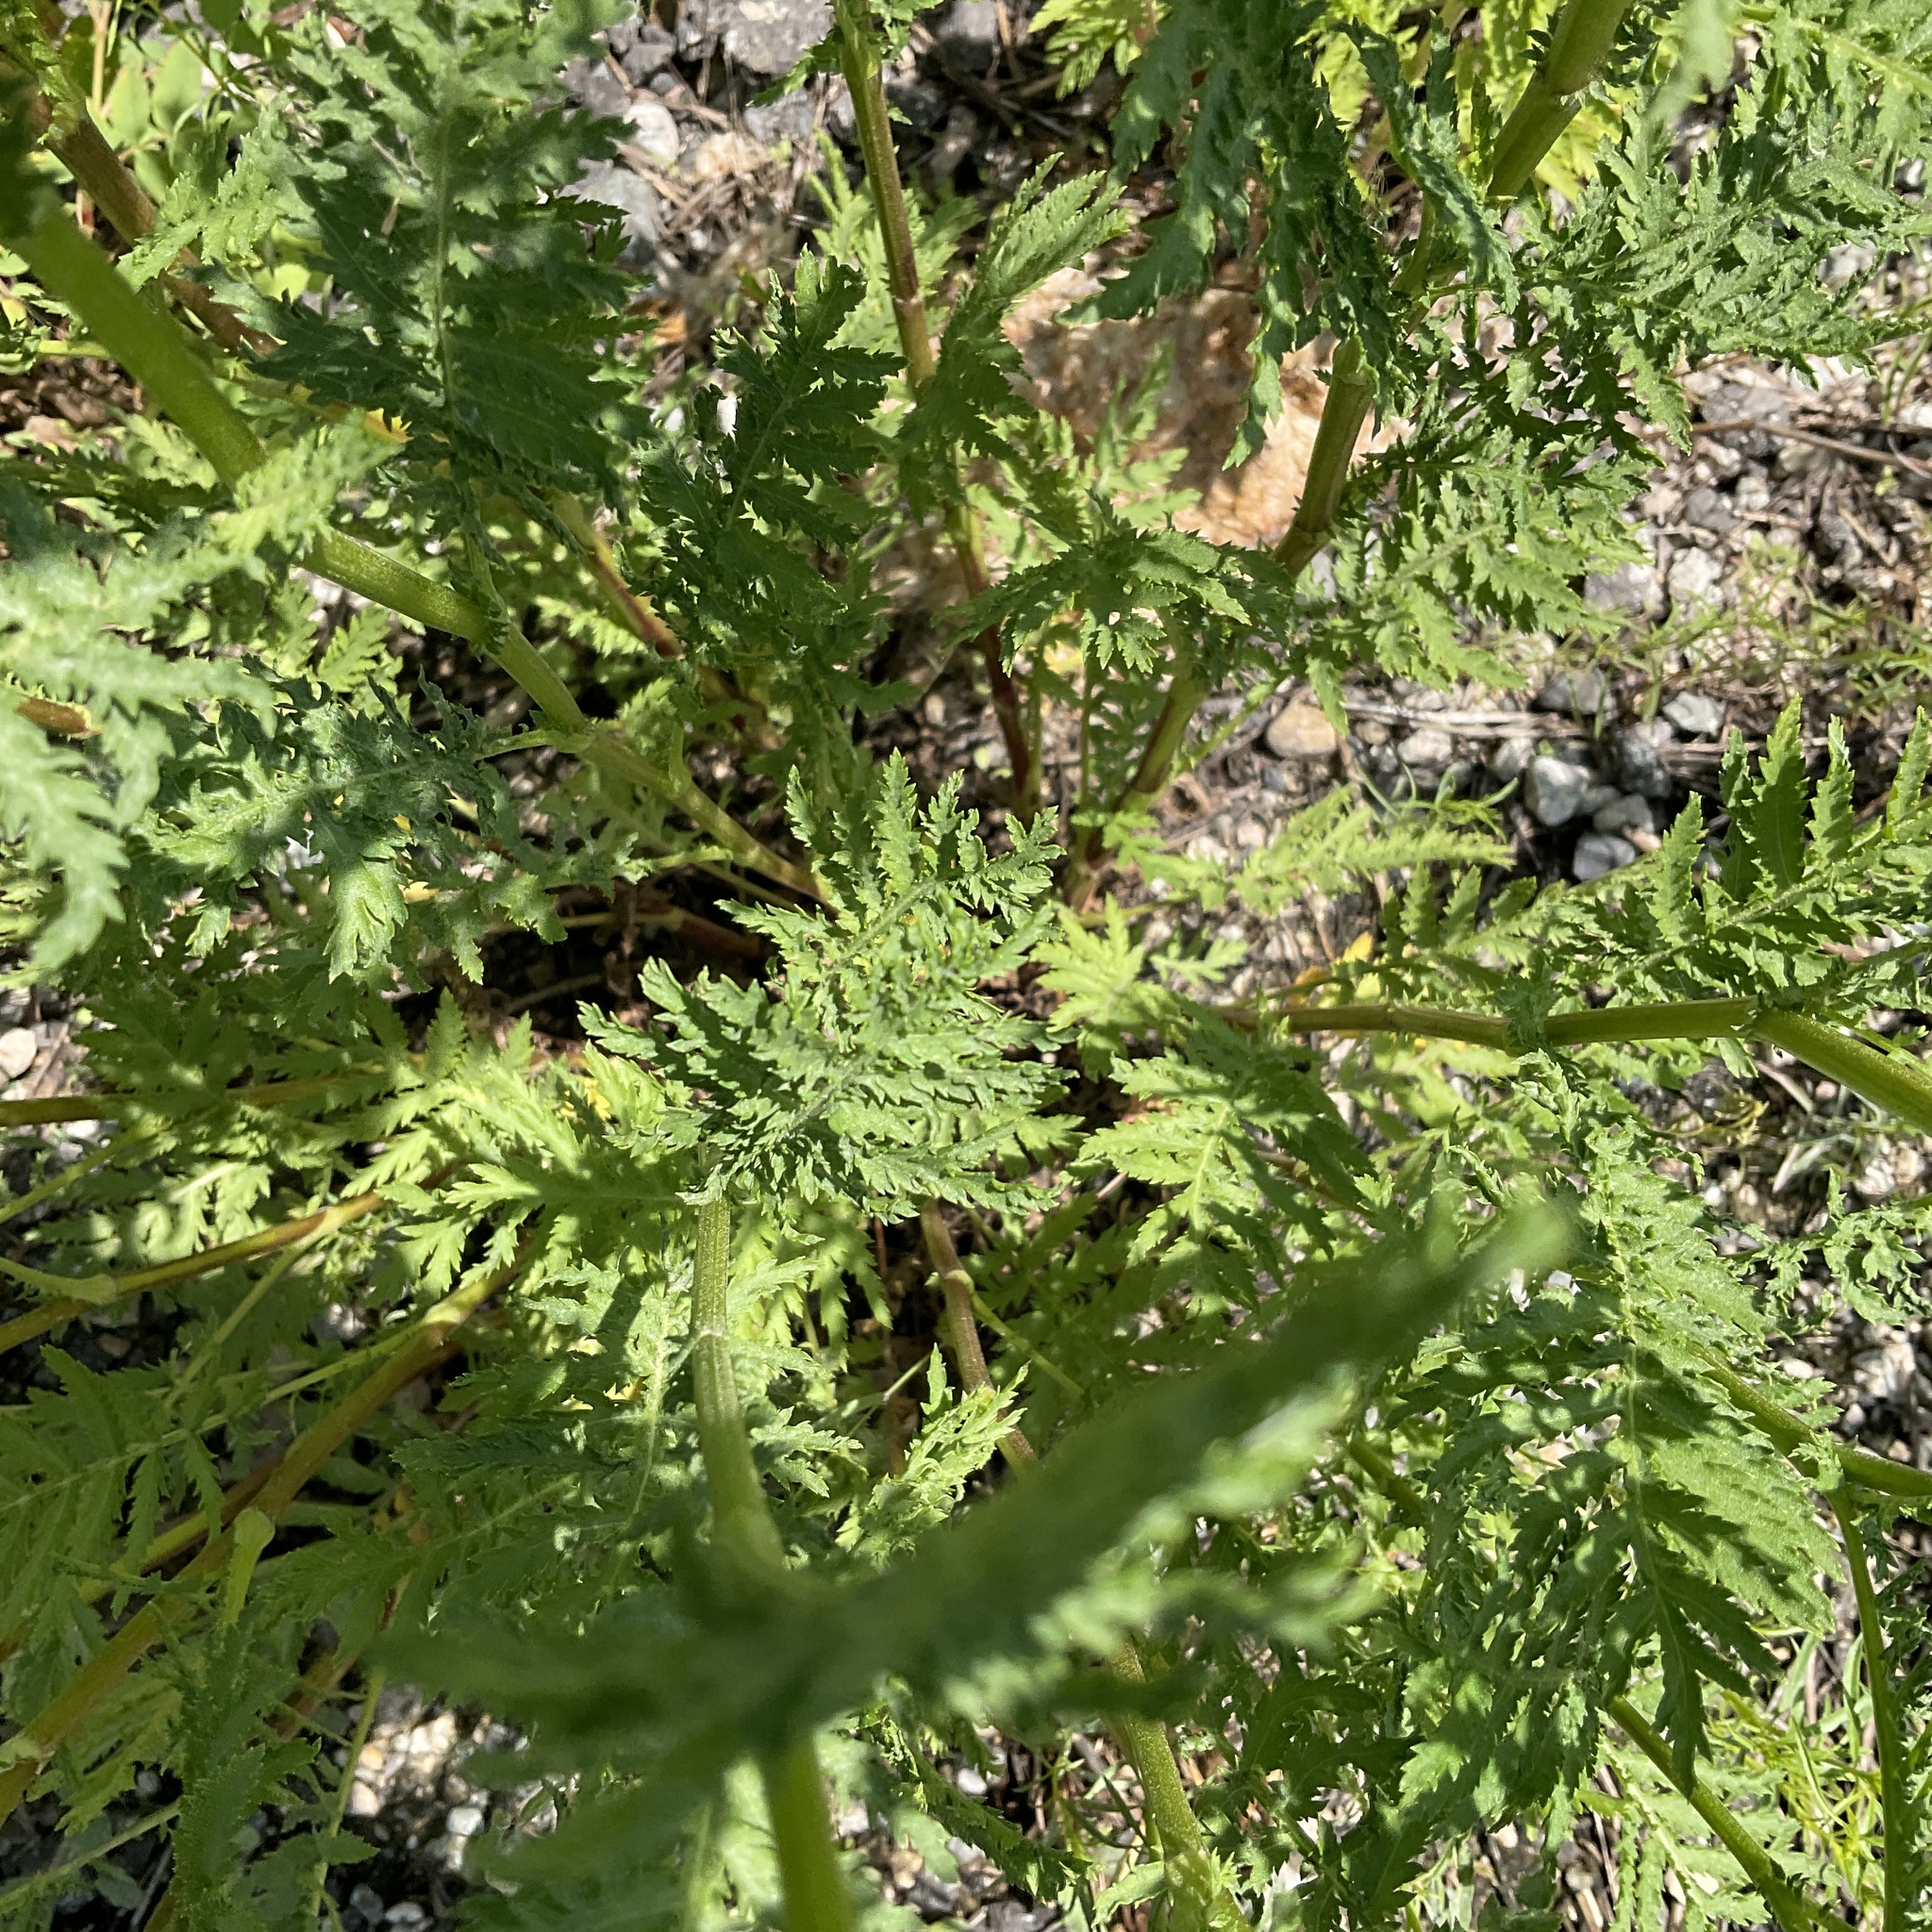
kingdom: Plantae
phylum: Tracheophyta
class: Magnoliopsida
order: Asterales
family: Asteraceae
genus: Tanacetum
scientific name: Tanacetum vulgare
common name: Common tansy
